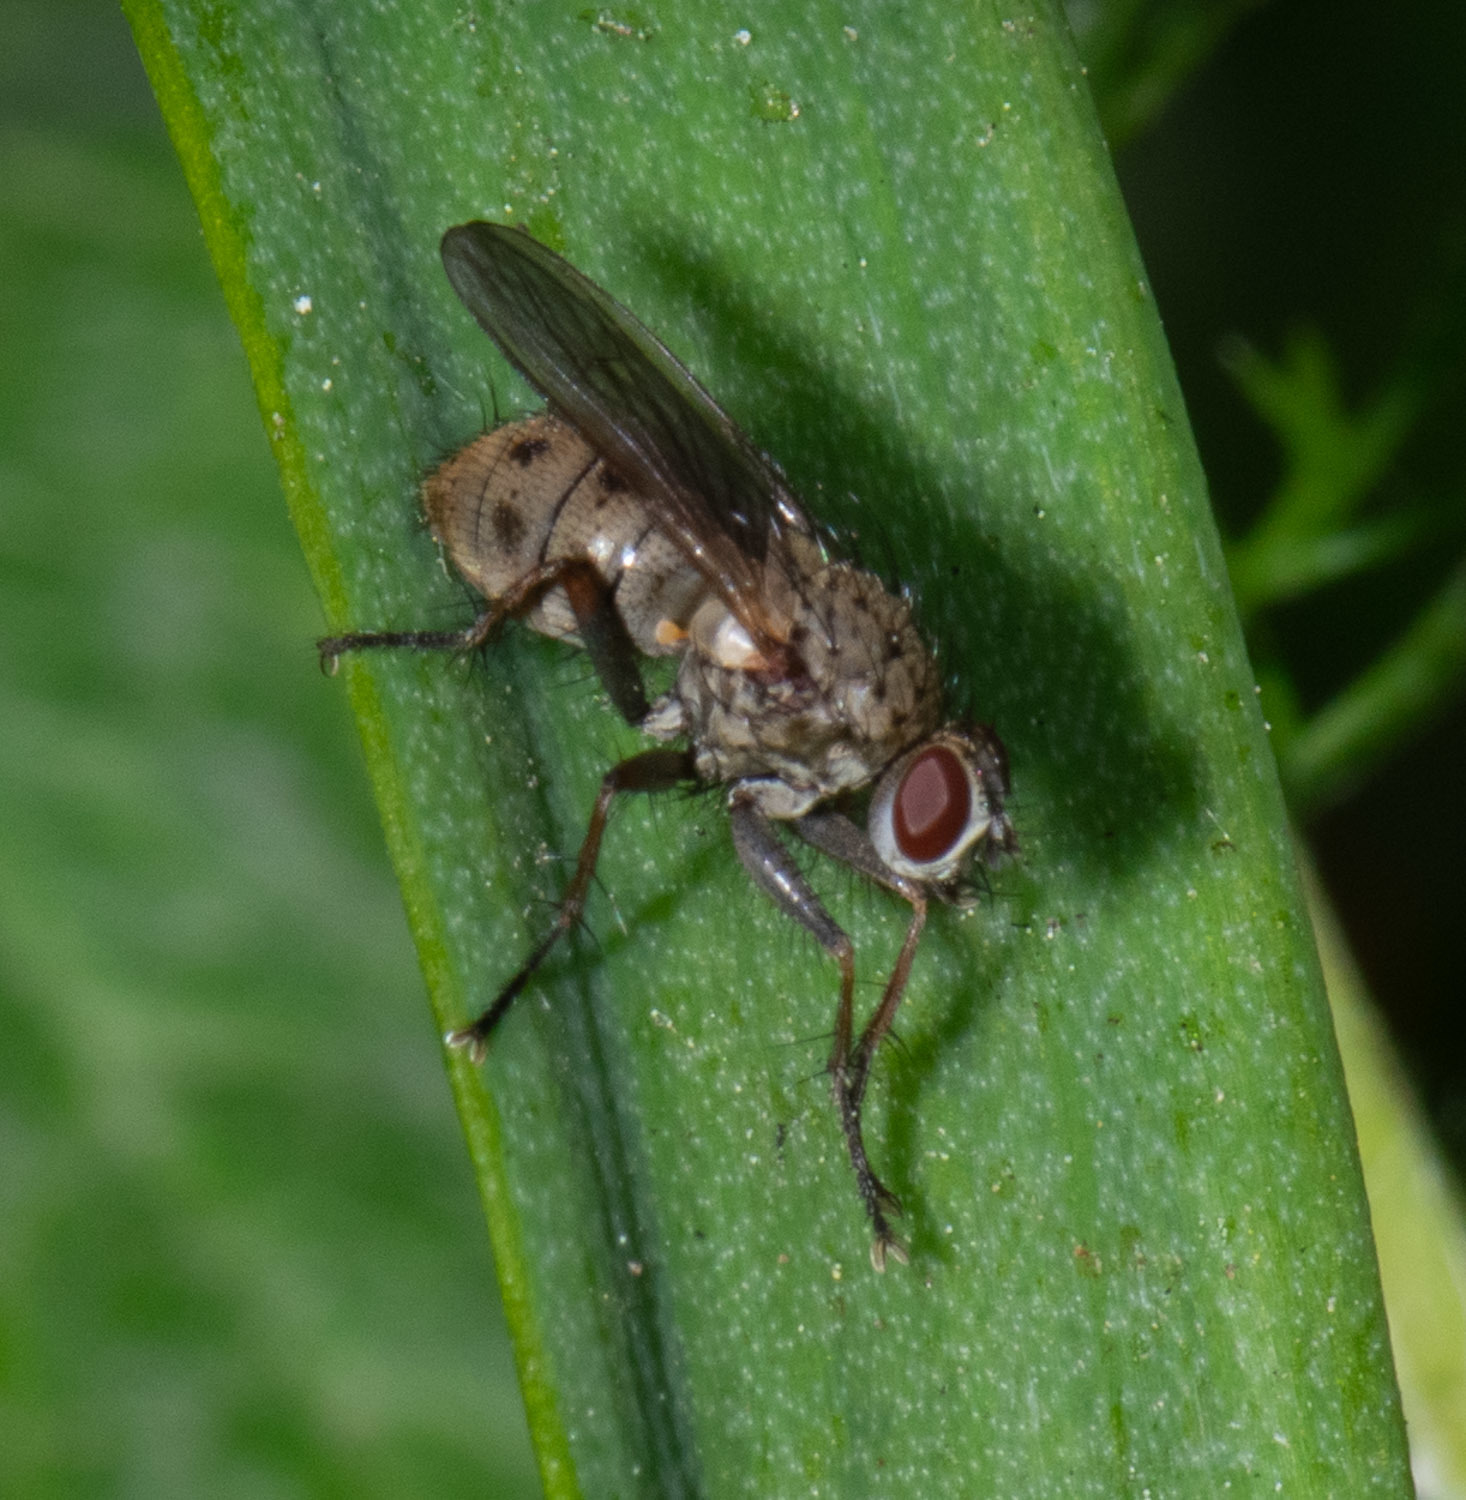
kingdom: Animalia
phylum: Arthropoda
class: Insecta
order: Diptera
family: Muscidae
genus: Coenosia
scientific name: Coenosia tigrina
